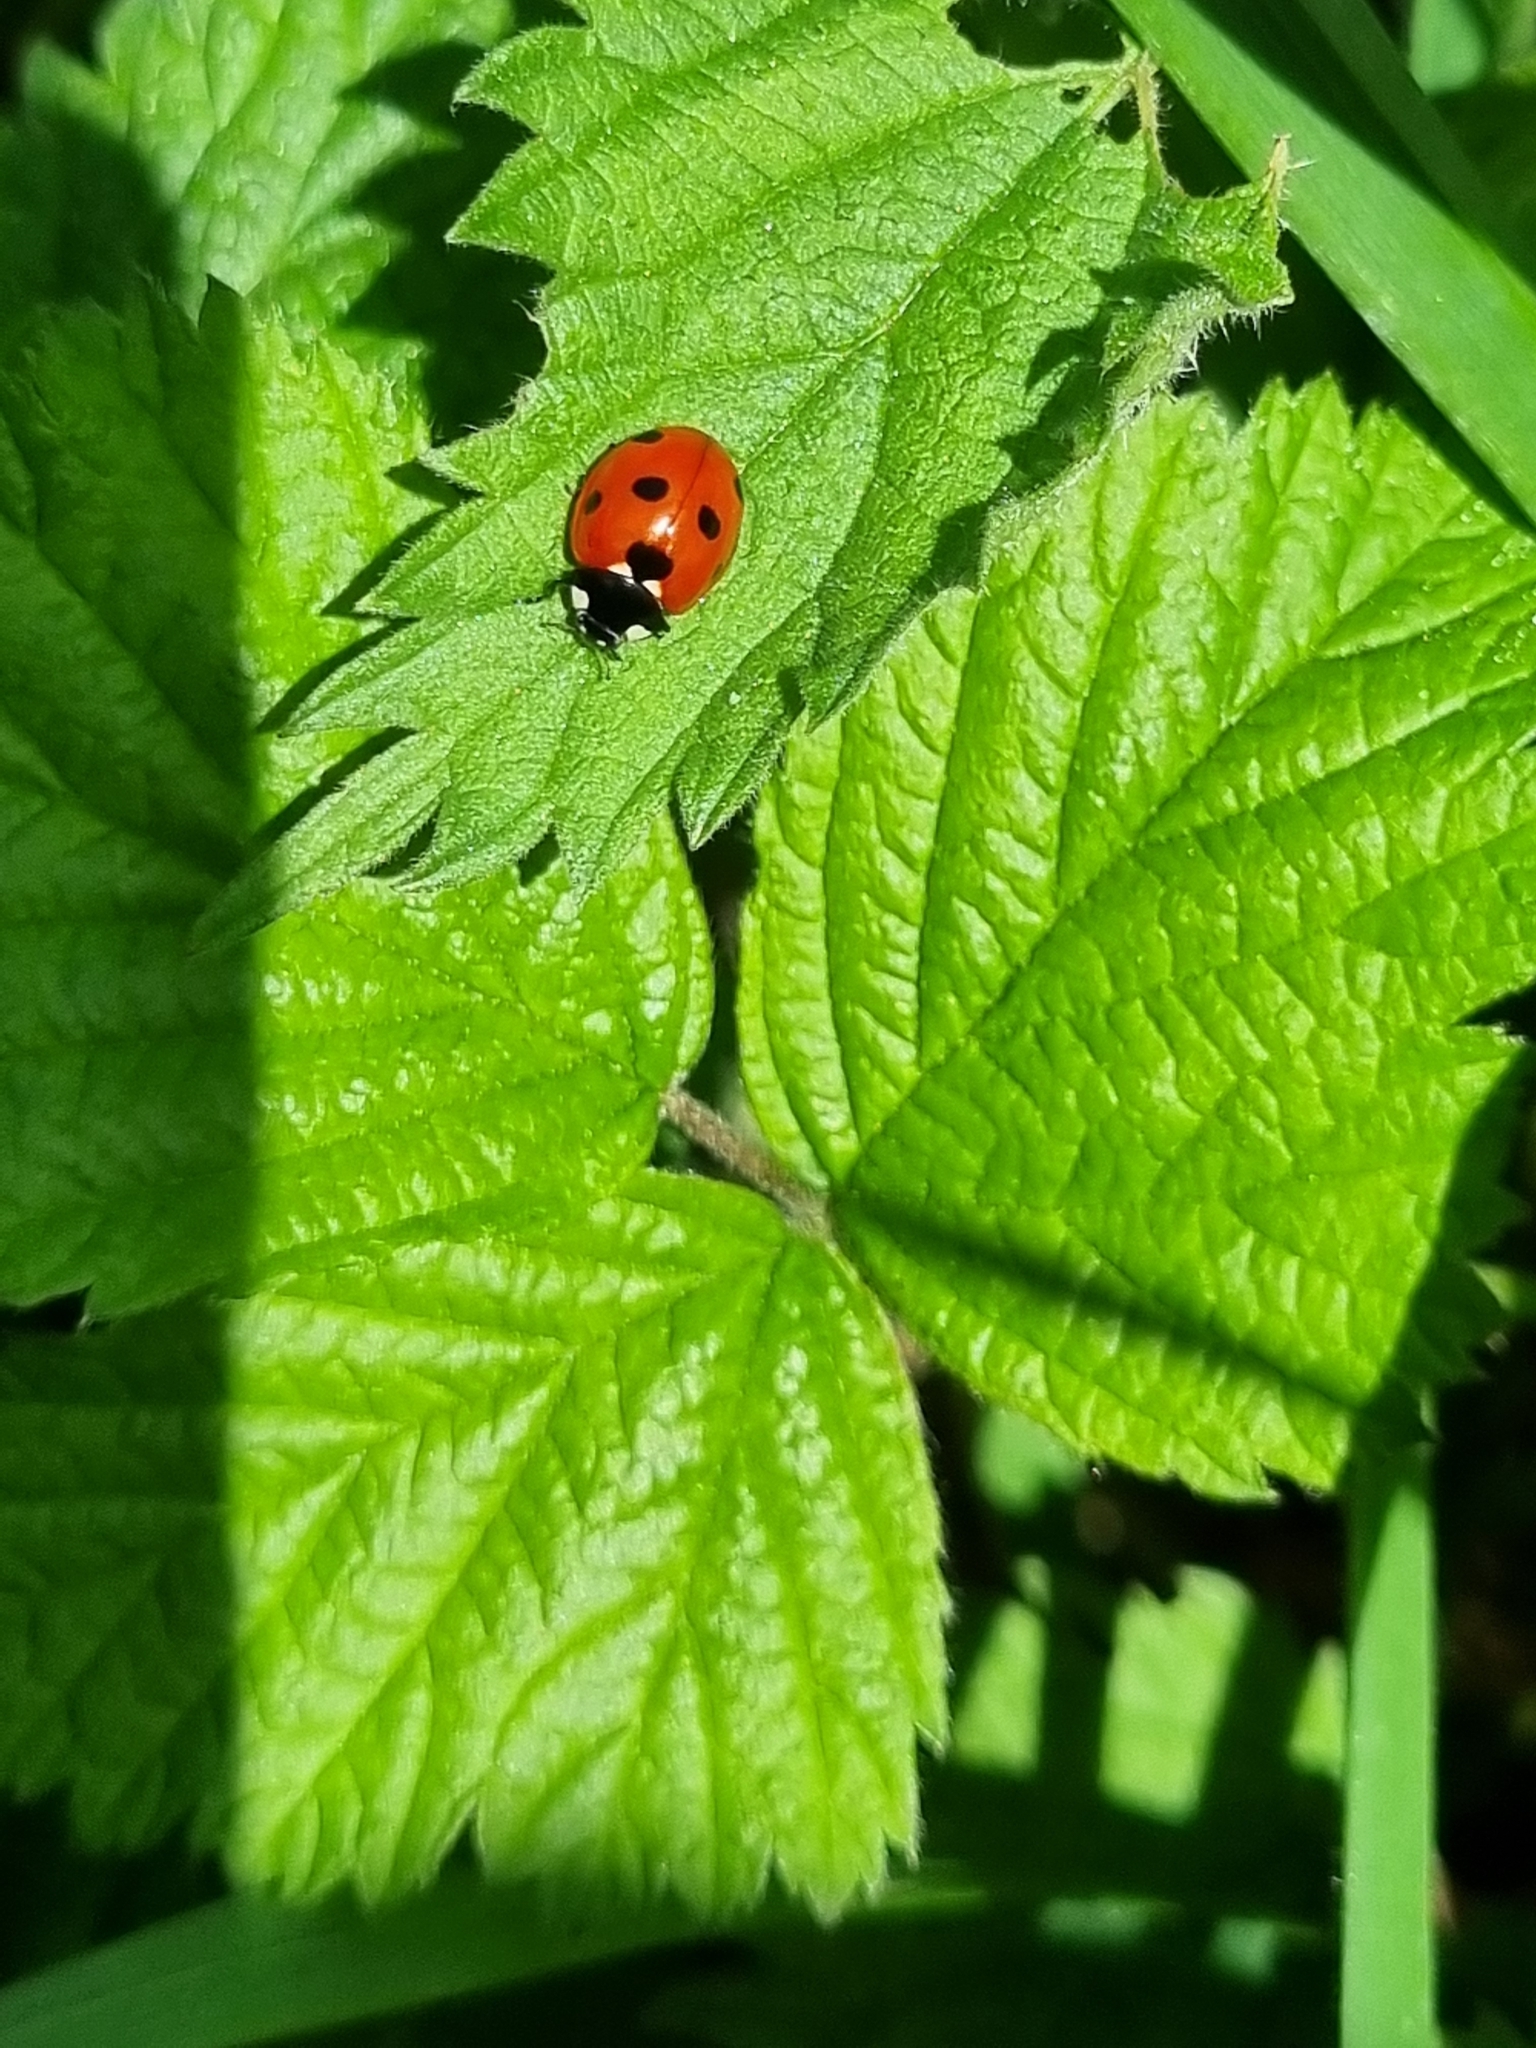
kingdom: Animalia
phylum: Arthropoda
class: Insecta
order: Coleoptera
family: Coccinellidae
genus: Coccinella
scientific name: Coccinella septempunctata
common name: Sevenspotted lady beetle
